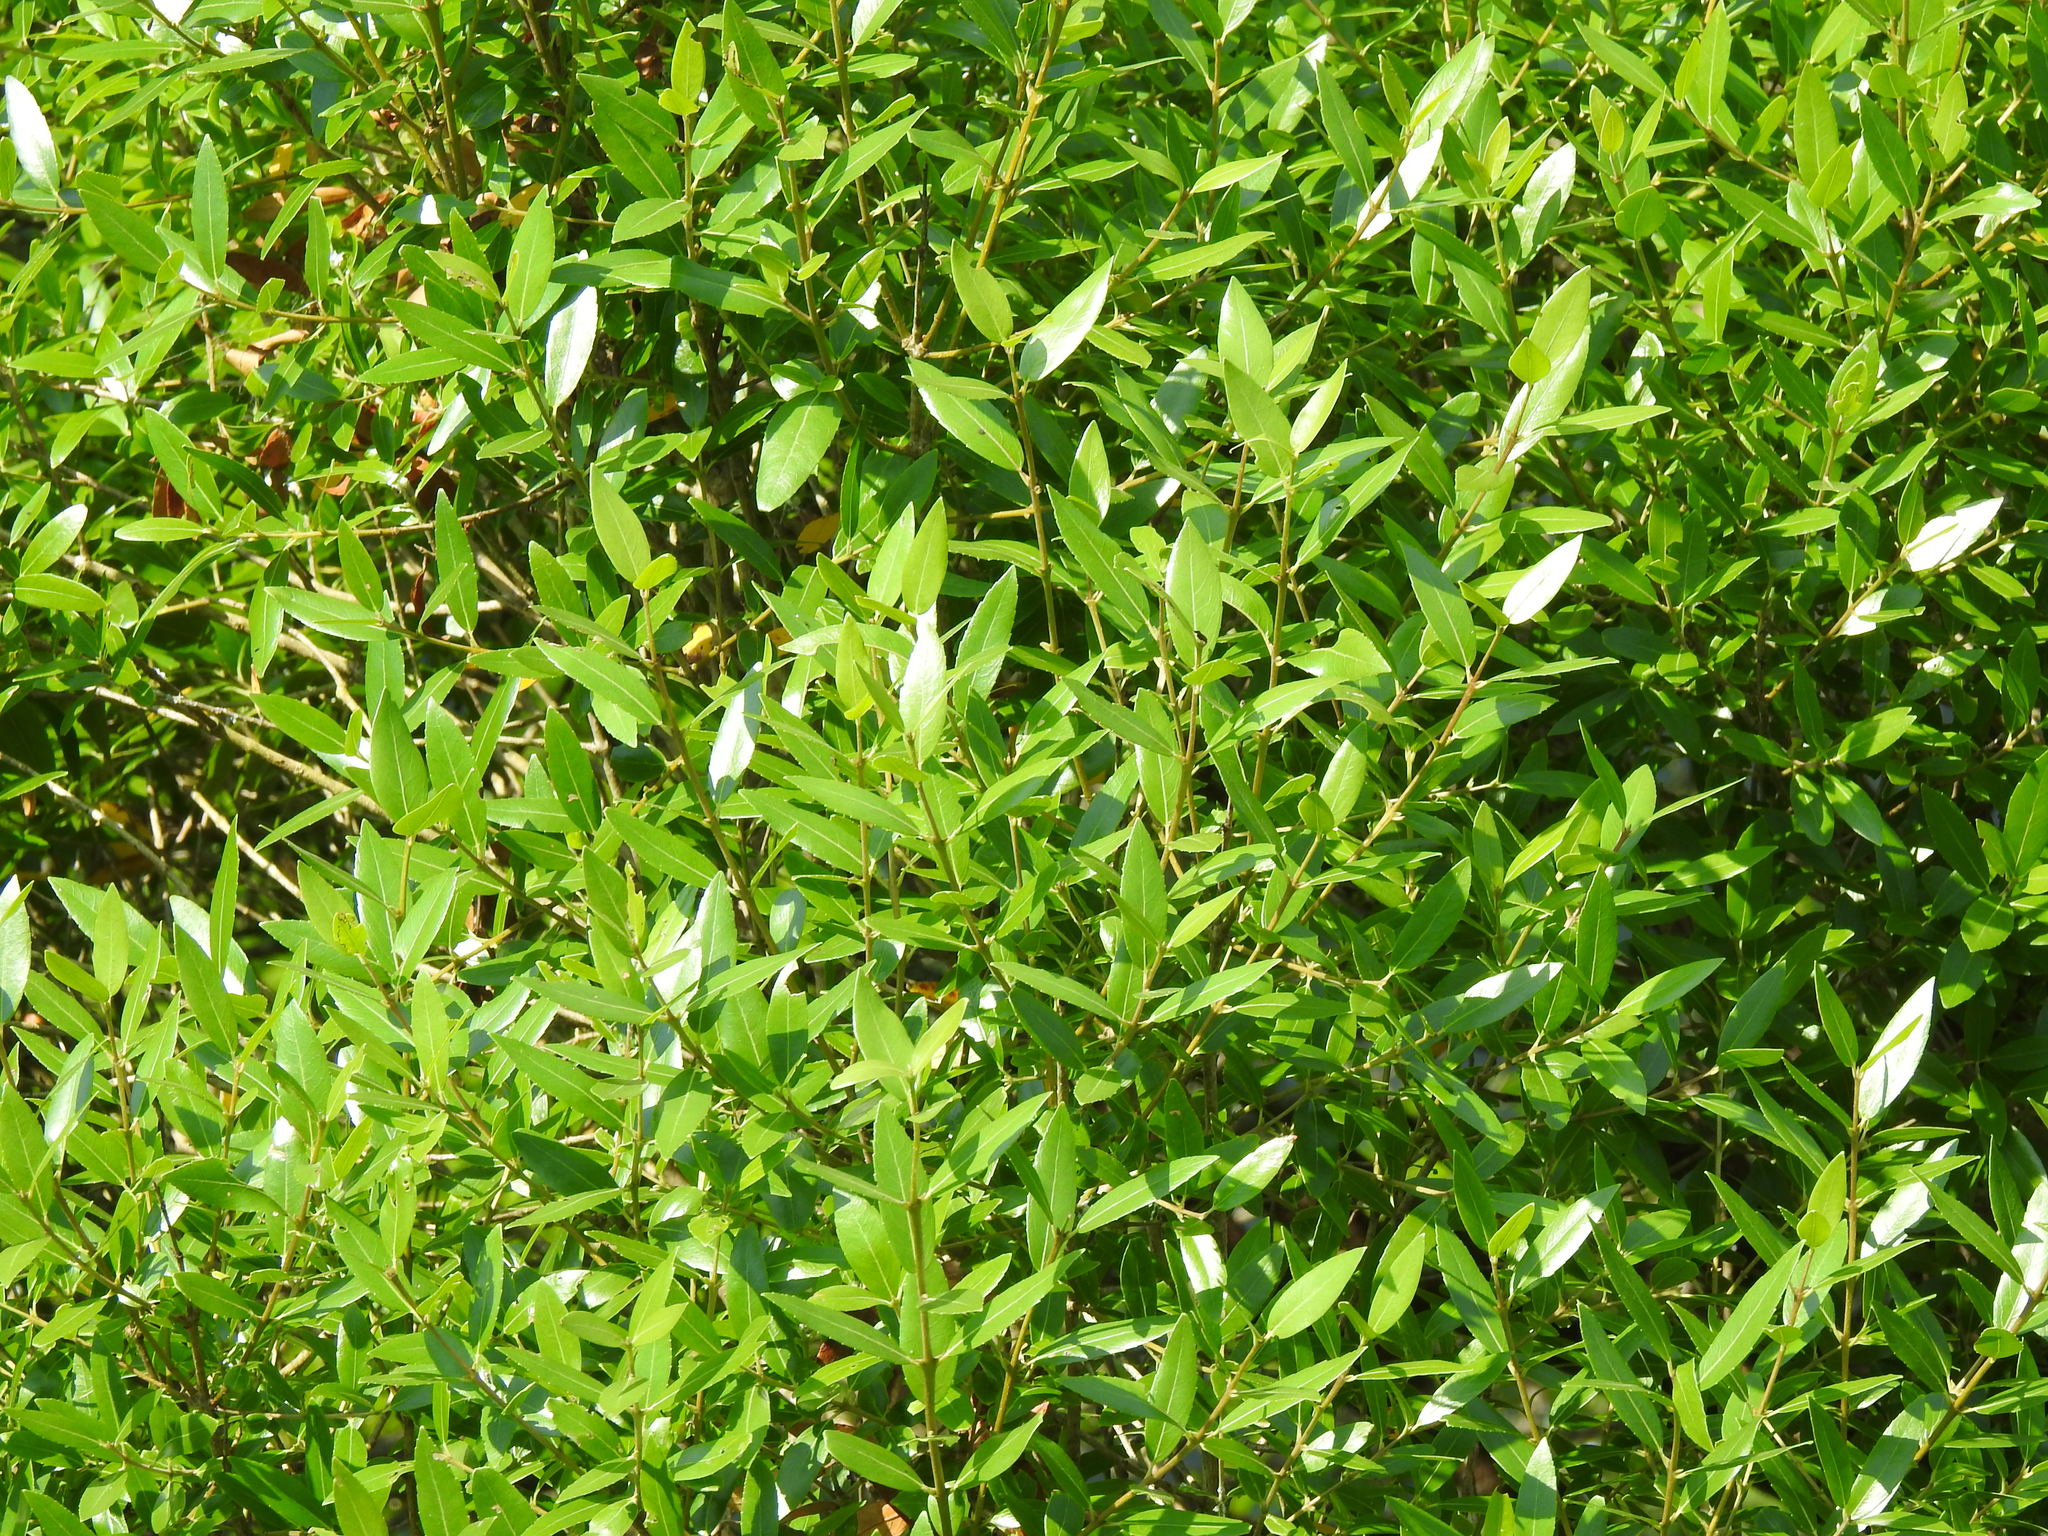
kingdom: Plantae
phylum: Tracheophyta
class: Magnoliopsida
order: Lamiales
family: Oleaceae
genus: Phillyrea
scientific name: Phillyrea latifolia
